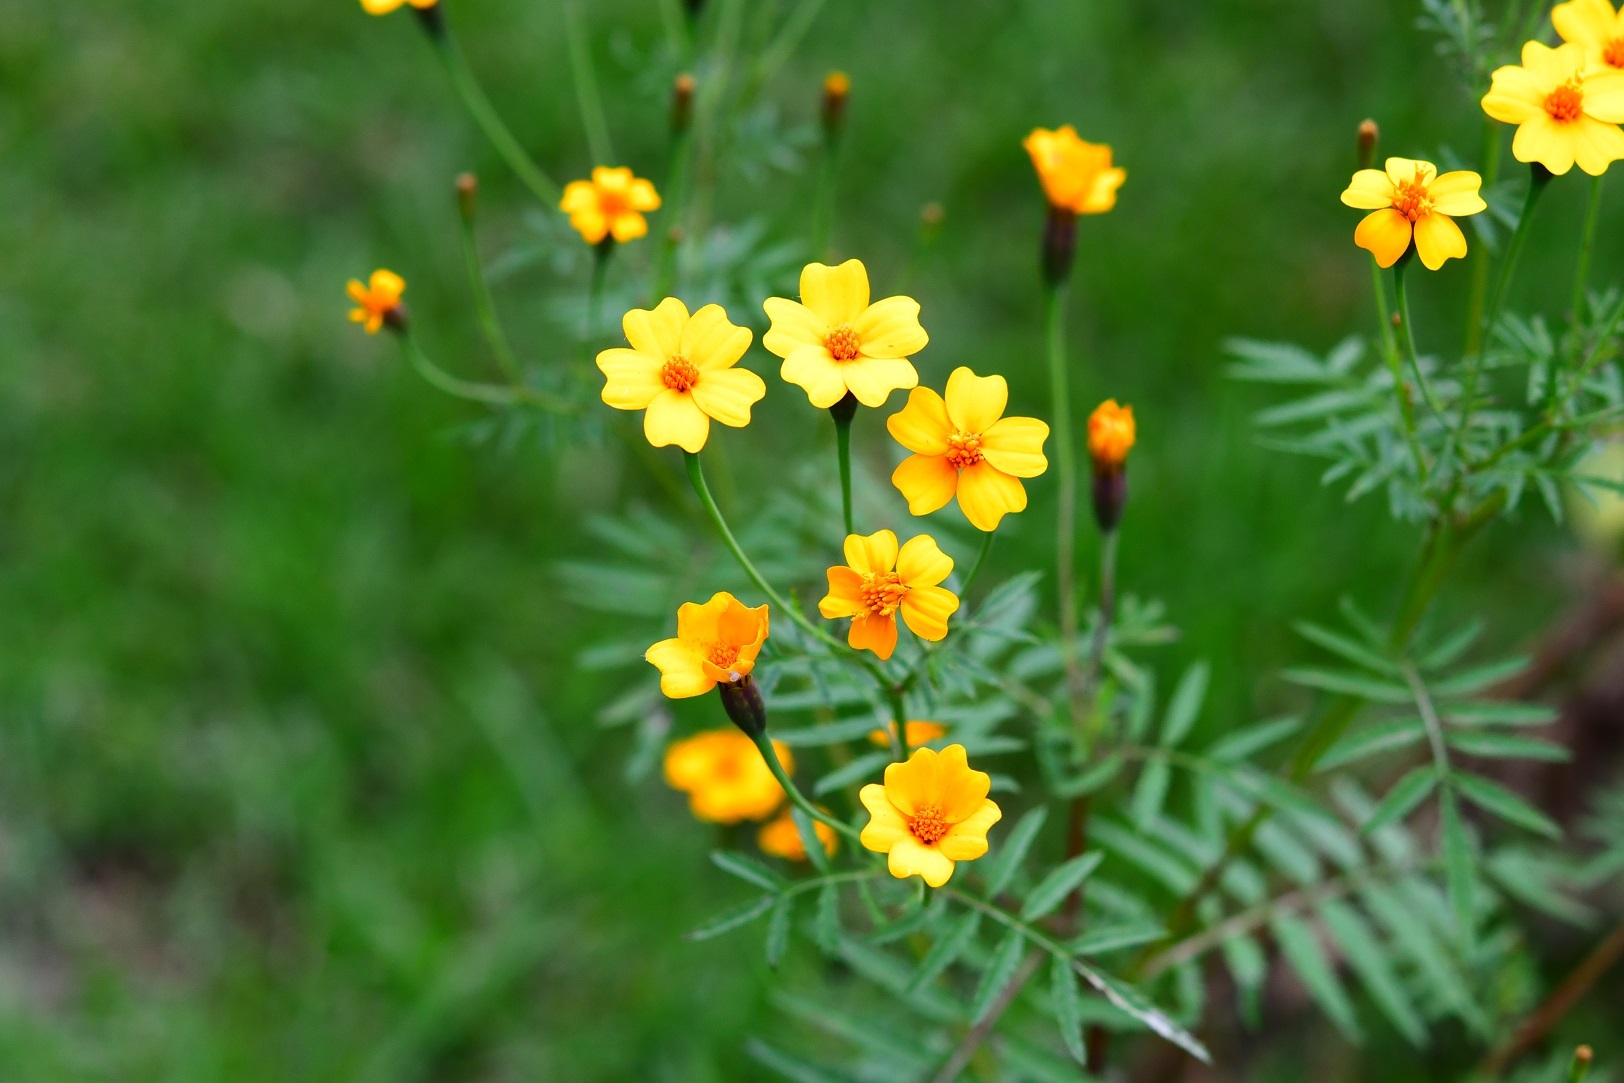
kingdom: Plantae
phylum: Tracheophyta
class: Magnoliopsida
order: Asterales
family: Asteraceae
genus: Tagetes
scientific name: Tagetes tenuifolia
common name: Signet marigold
